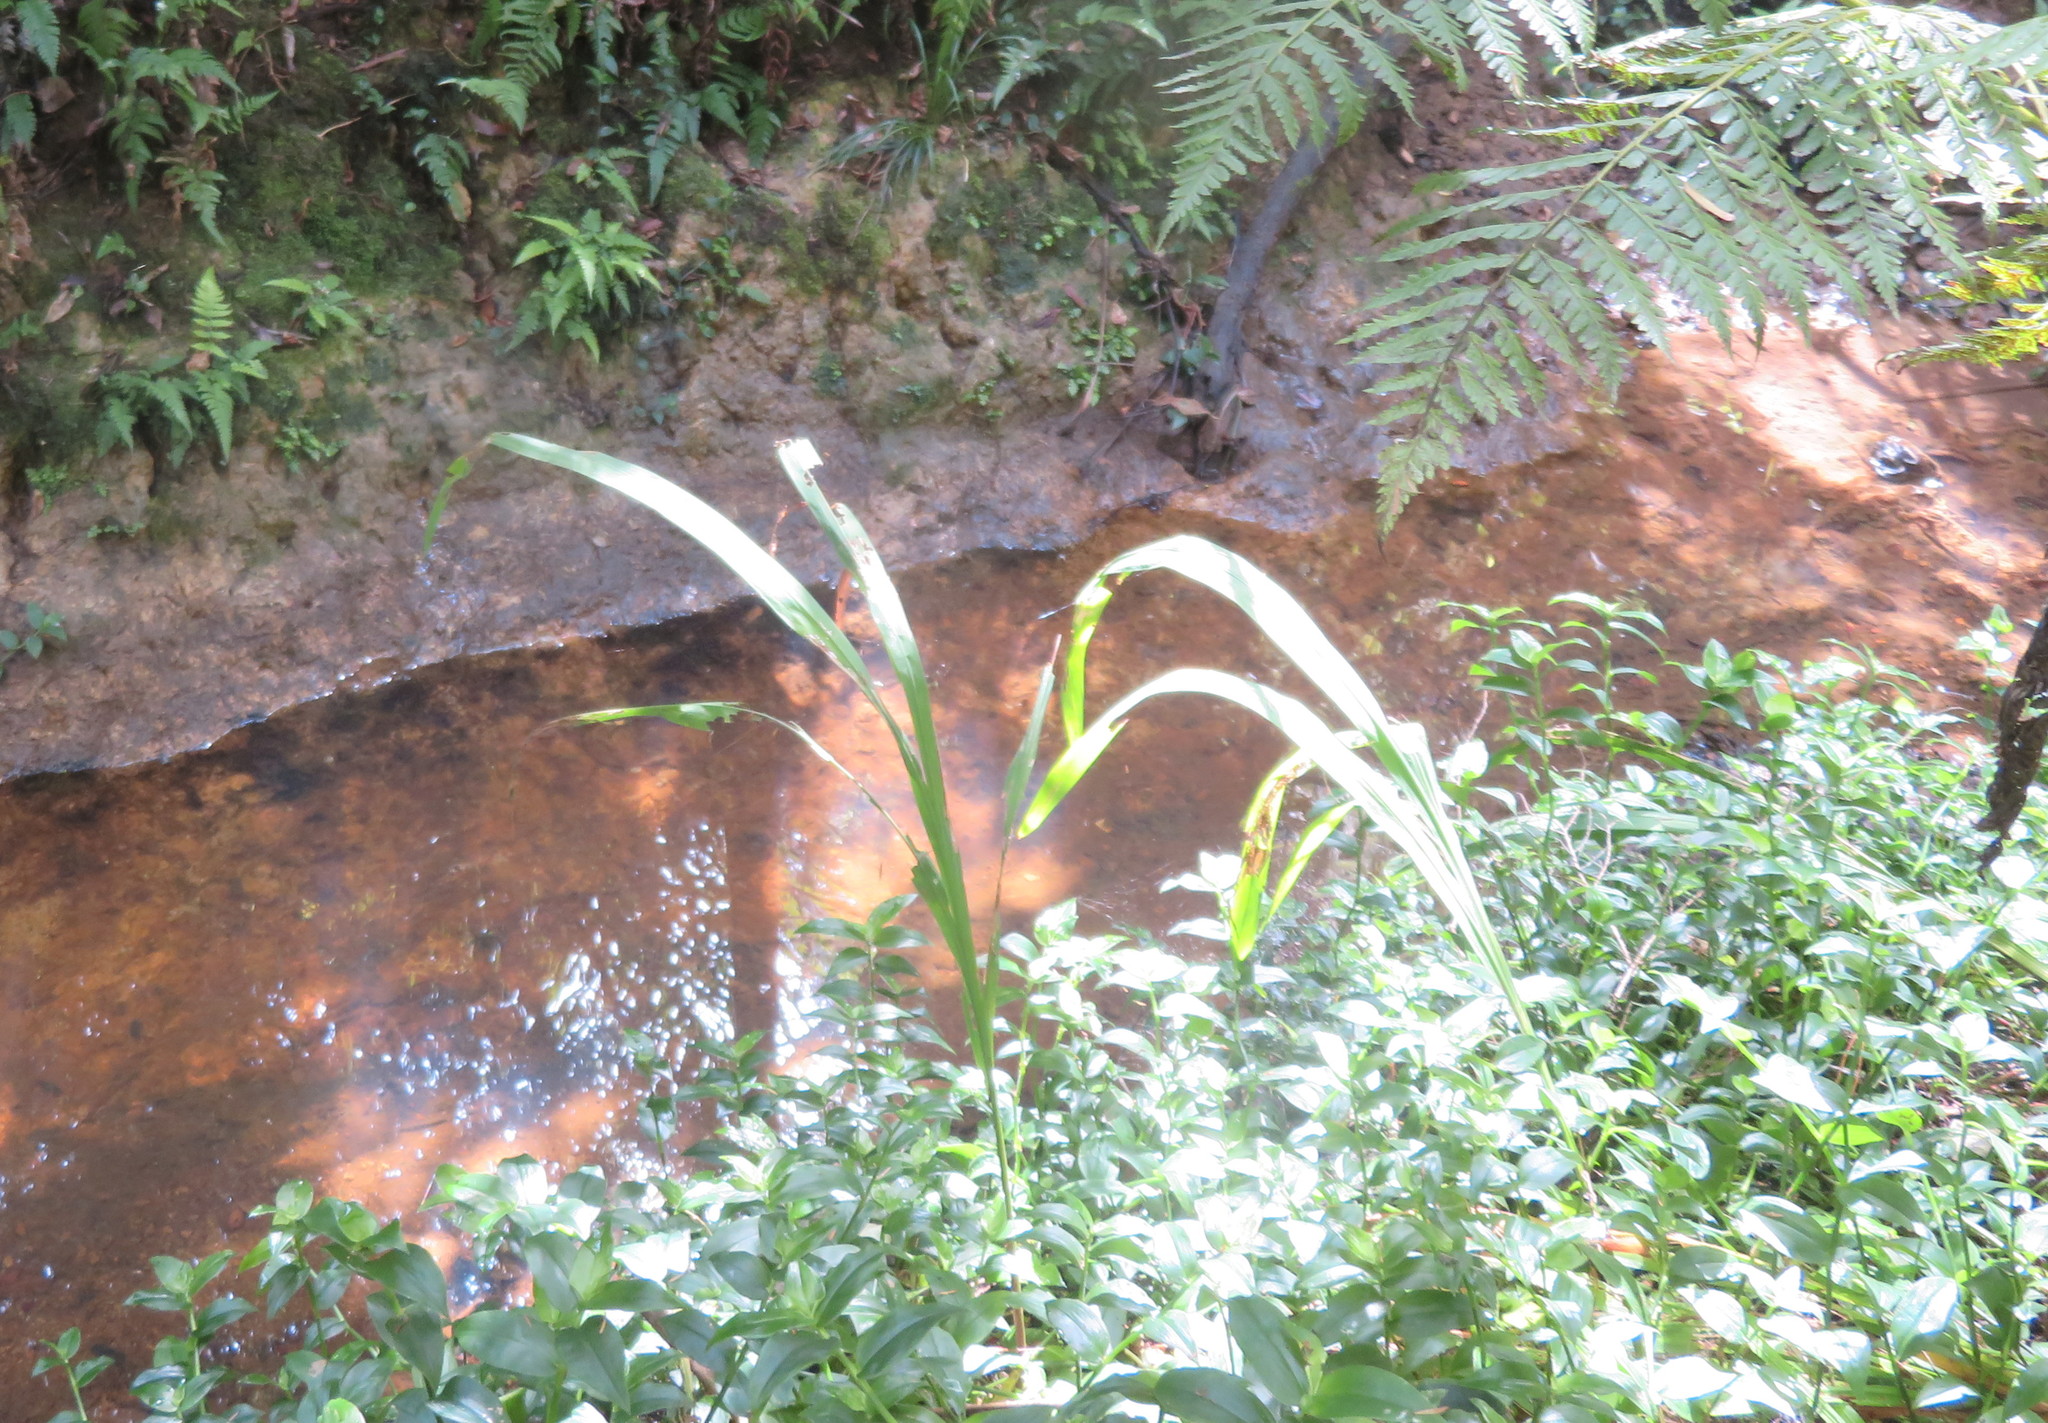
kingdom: Plantae
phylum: Tracheophyta
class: Liliopsida
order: Commelinales
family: Commelinaceae
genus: Tradescantia
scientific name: Tradescantia fluminensis
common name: Wandering-jew
